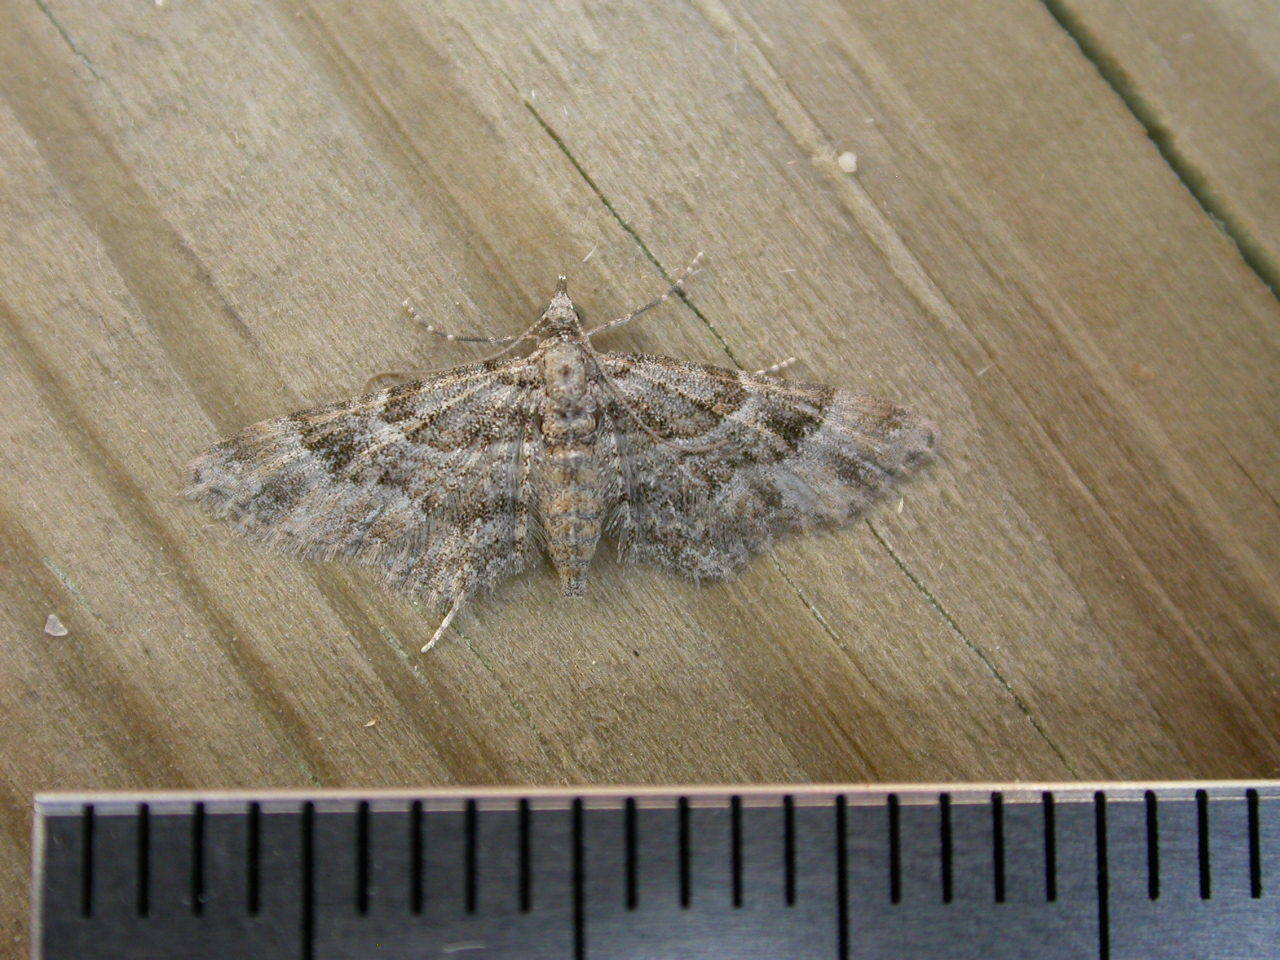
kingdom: Animalia
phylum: Arthropoda
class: Insecta
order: Lepidoptera
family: Geometridae
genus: Gymnoscelis
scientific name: Gymnoscelis rufifasciata
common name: Double-striped pug
